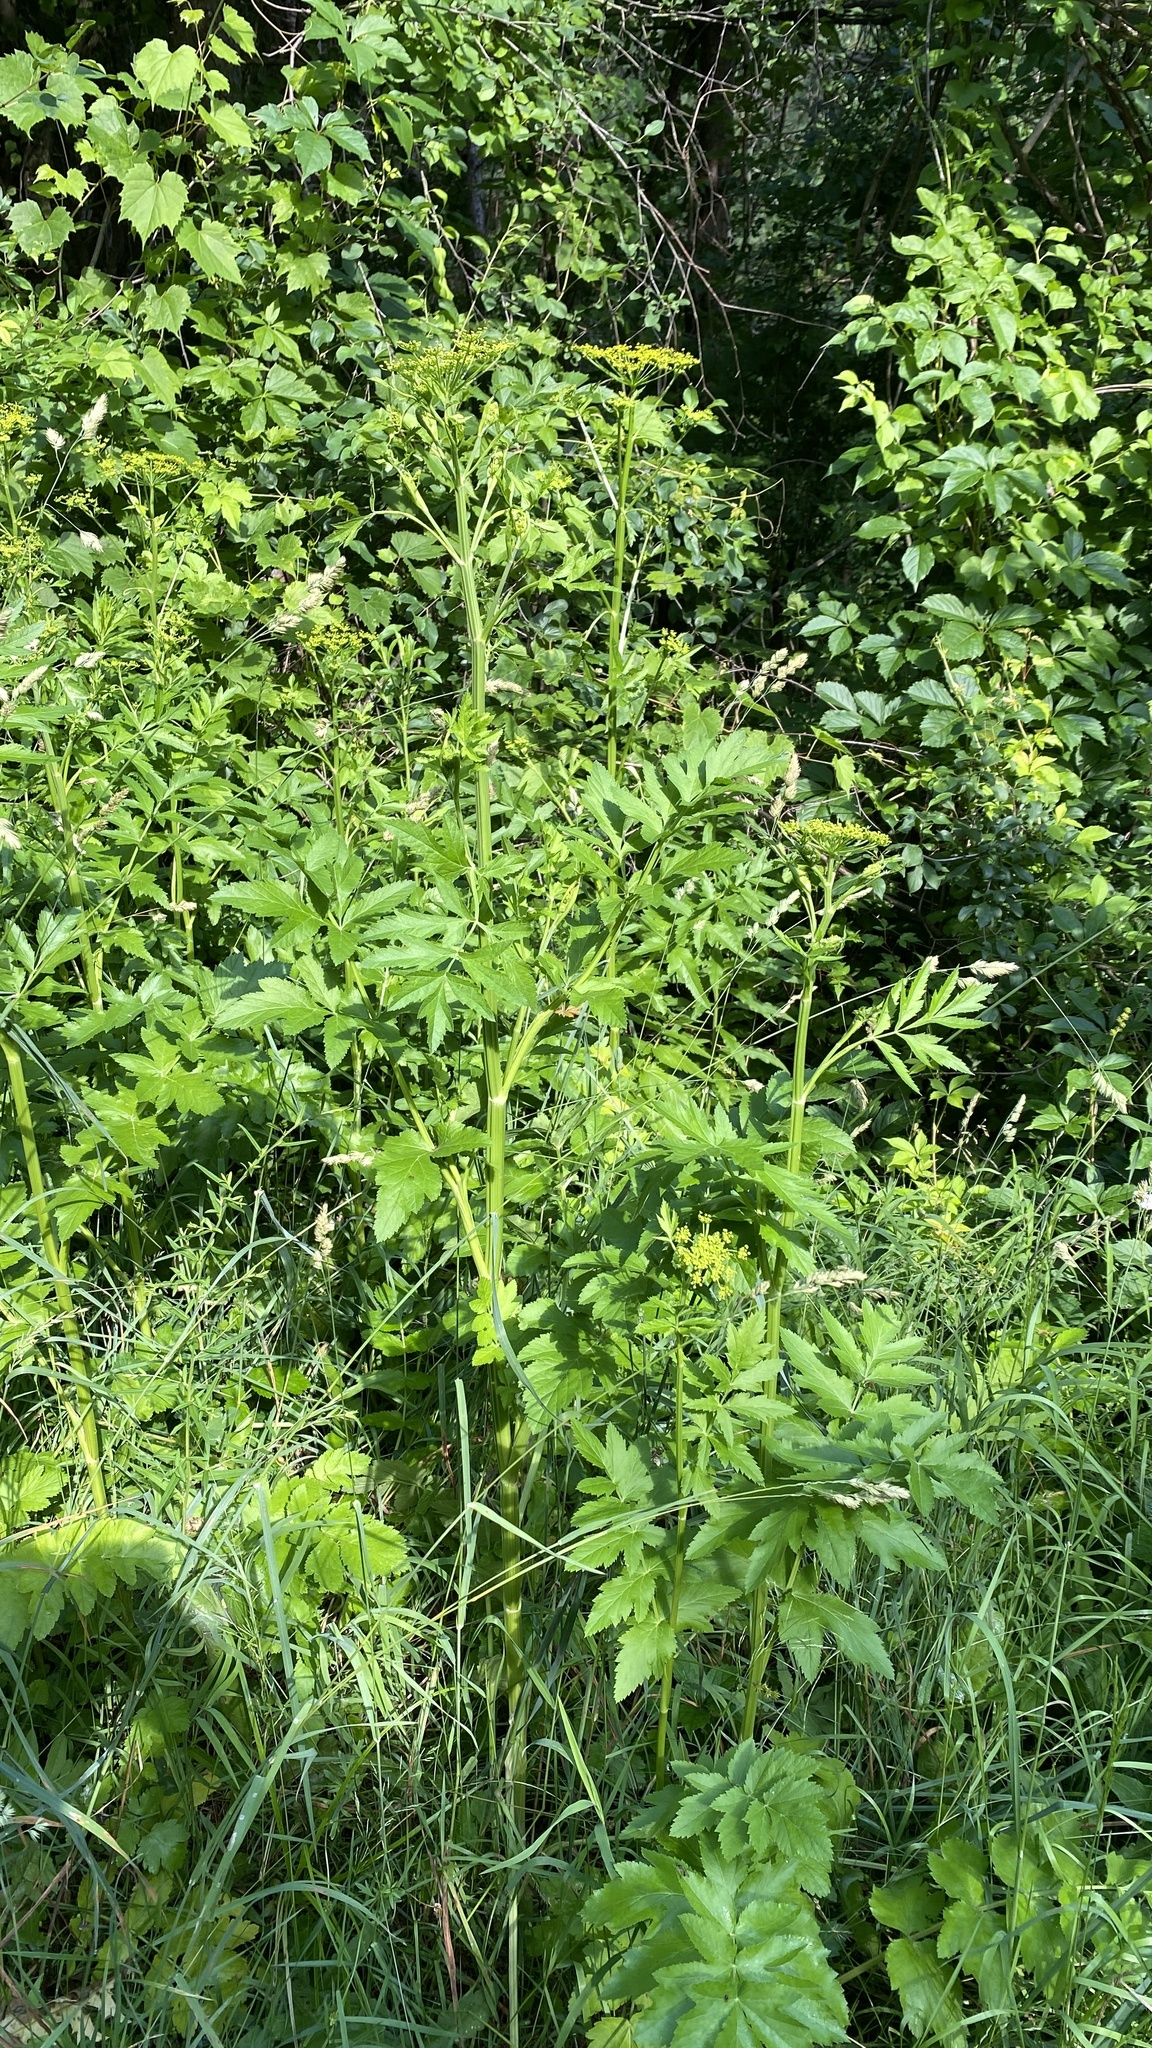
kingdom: Plantae
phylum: Tracheophyta
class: Magnoliopsida
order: Apiales
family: Apiaceae
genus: Pastinaca
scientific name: Pastinaca sativa
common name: Wild parsnip
